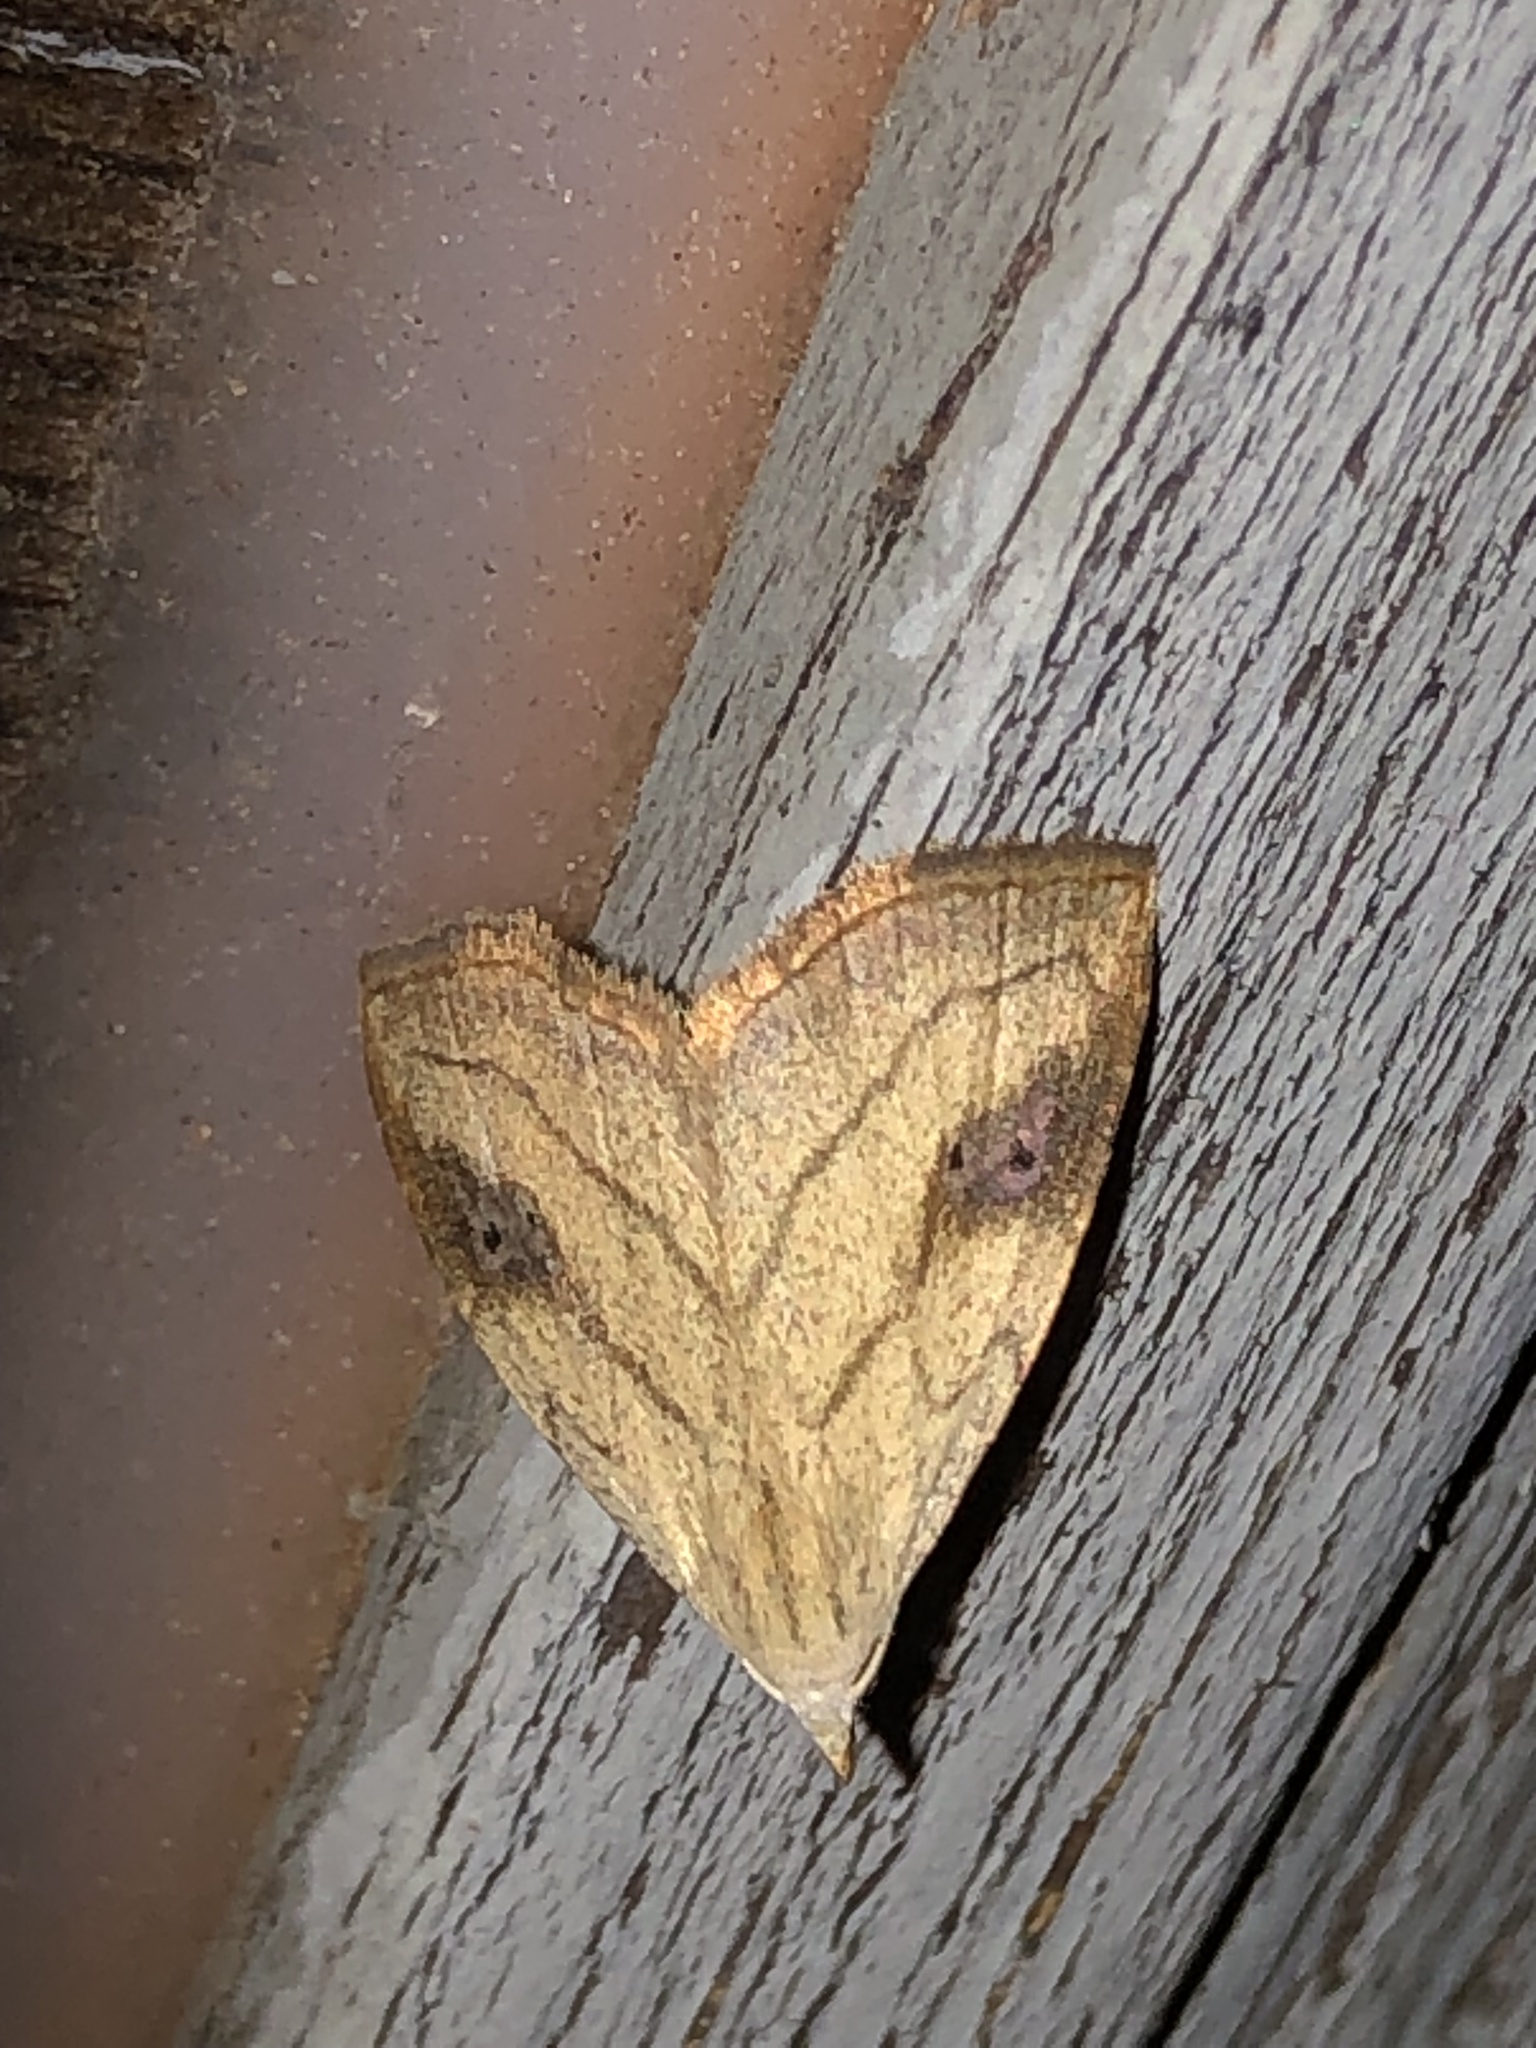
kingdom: Animalia
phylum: Arthropoda
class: Insecta
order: Lepidoptera
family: Erebidae
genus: Rivula
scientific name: Rivula propinqualis
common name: Spotted grass moth
